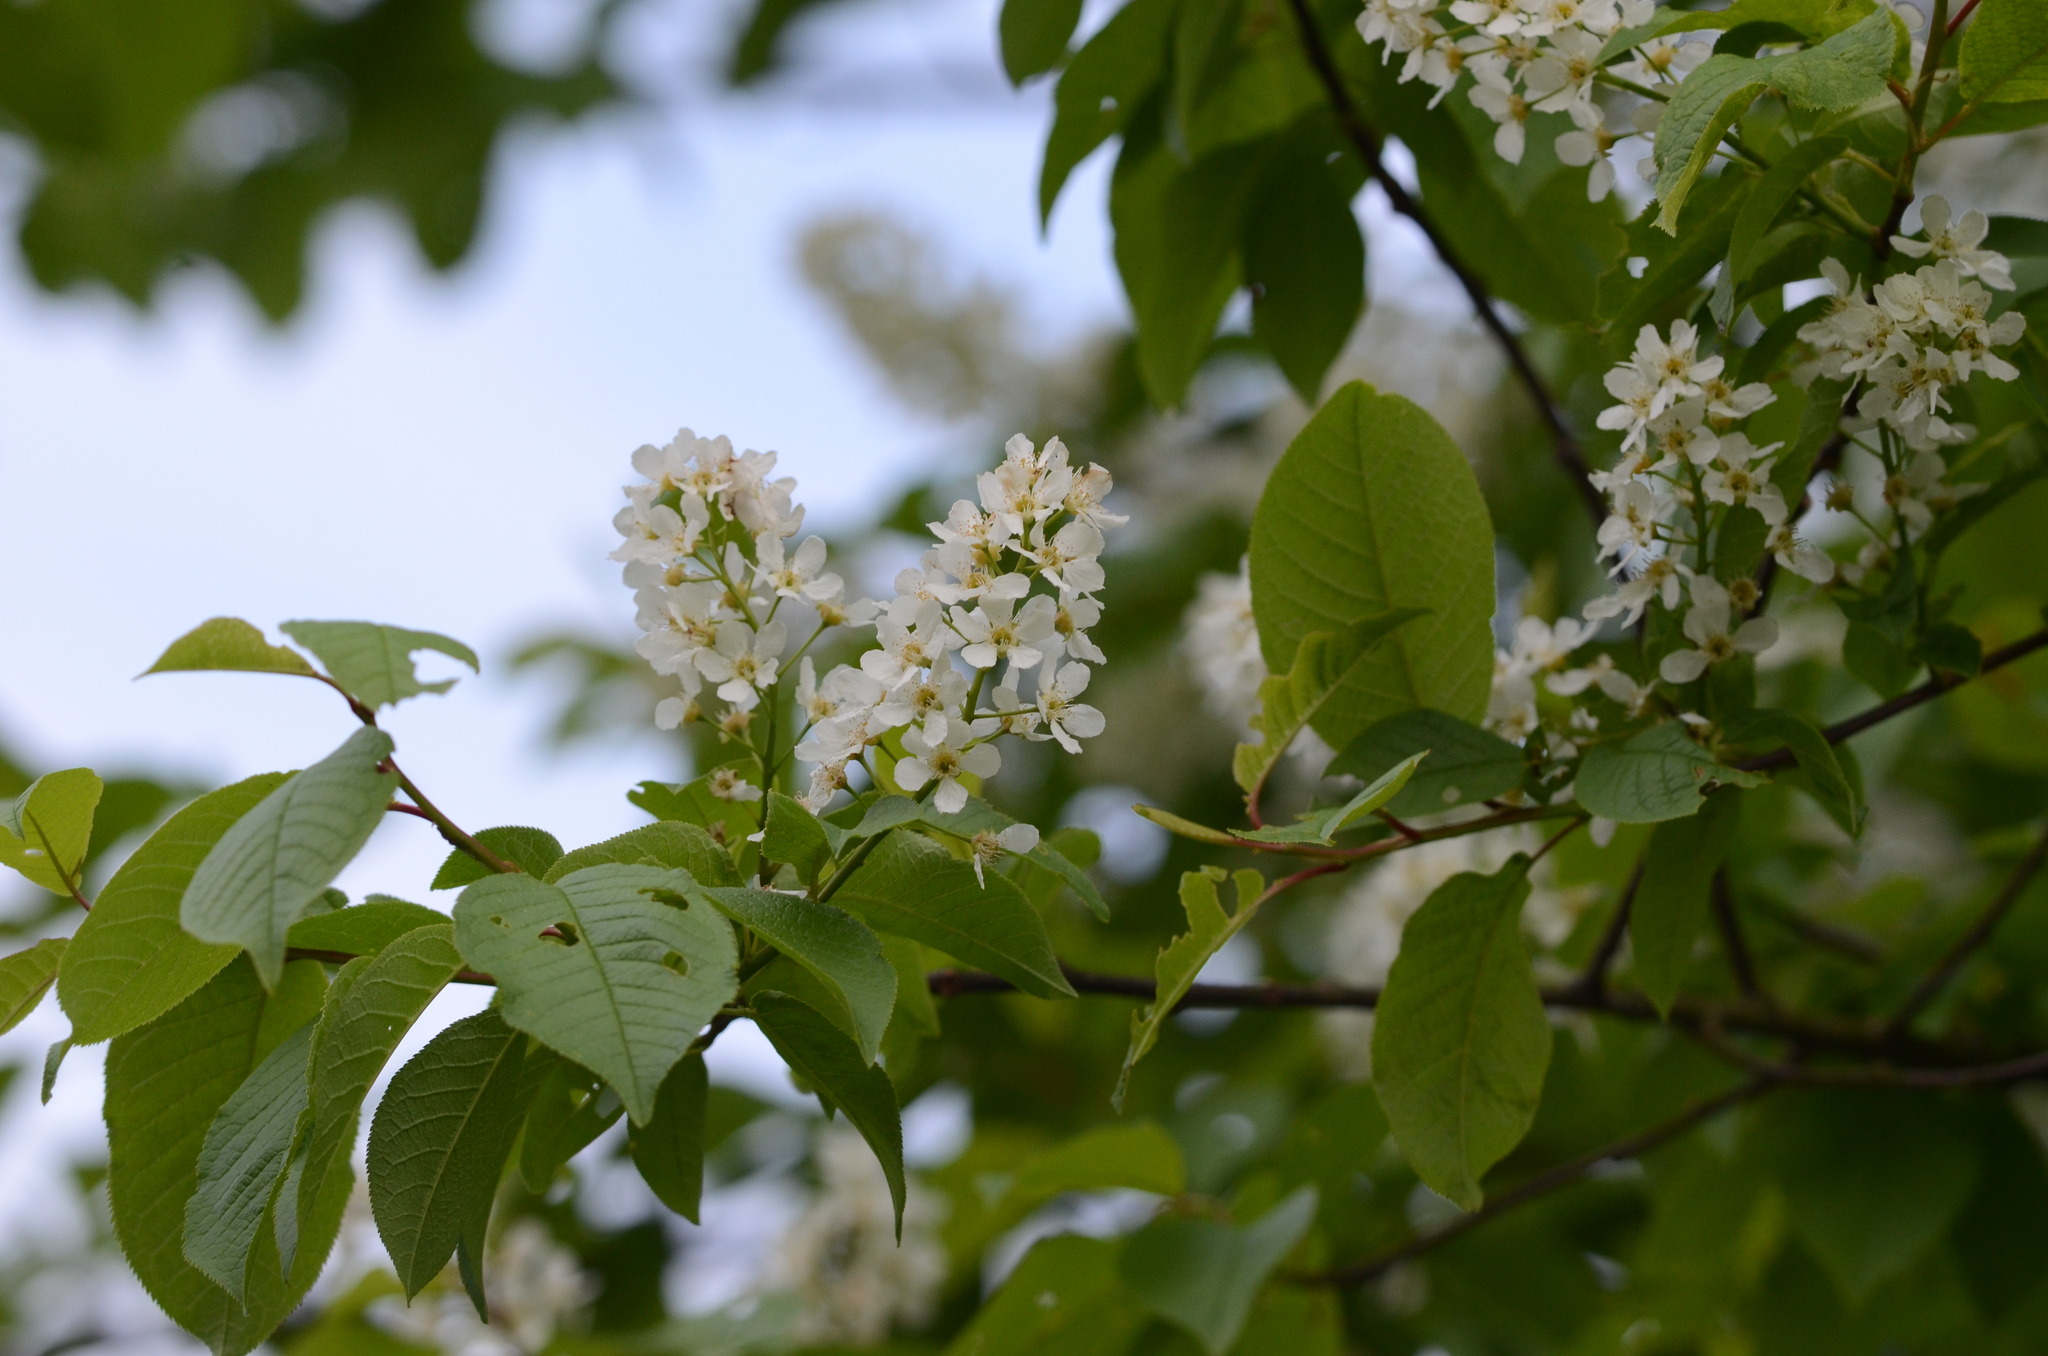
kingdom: Plantae
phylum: Tracheophyta
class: Magnoliopsida
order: Rosales
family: Rosaceae
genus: Prunus
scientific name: Prunus padus
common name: Bird cherry
